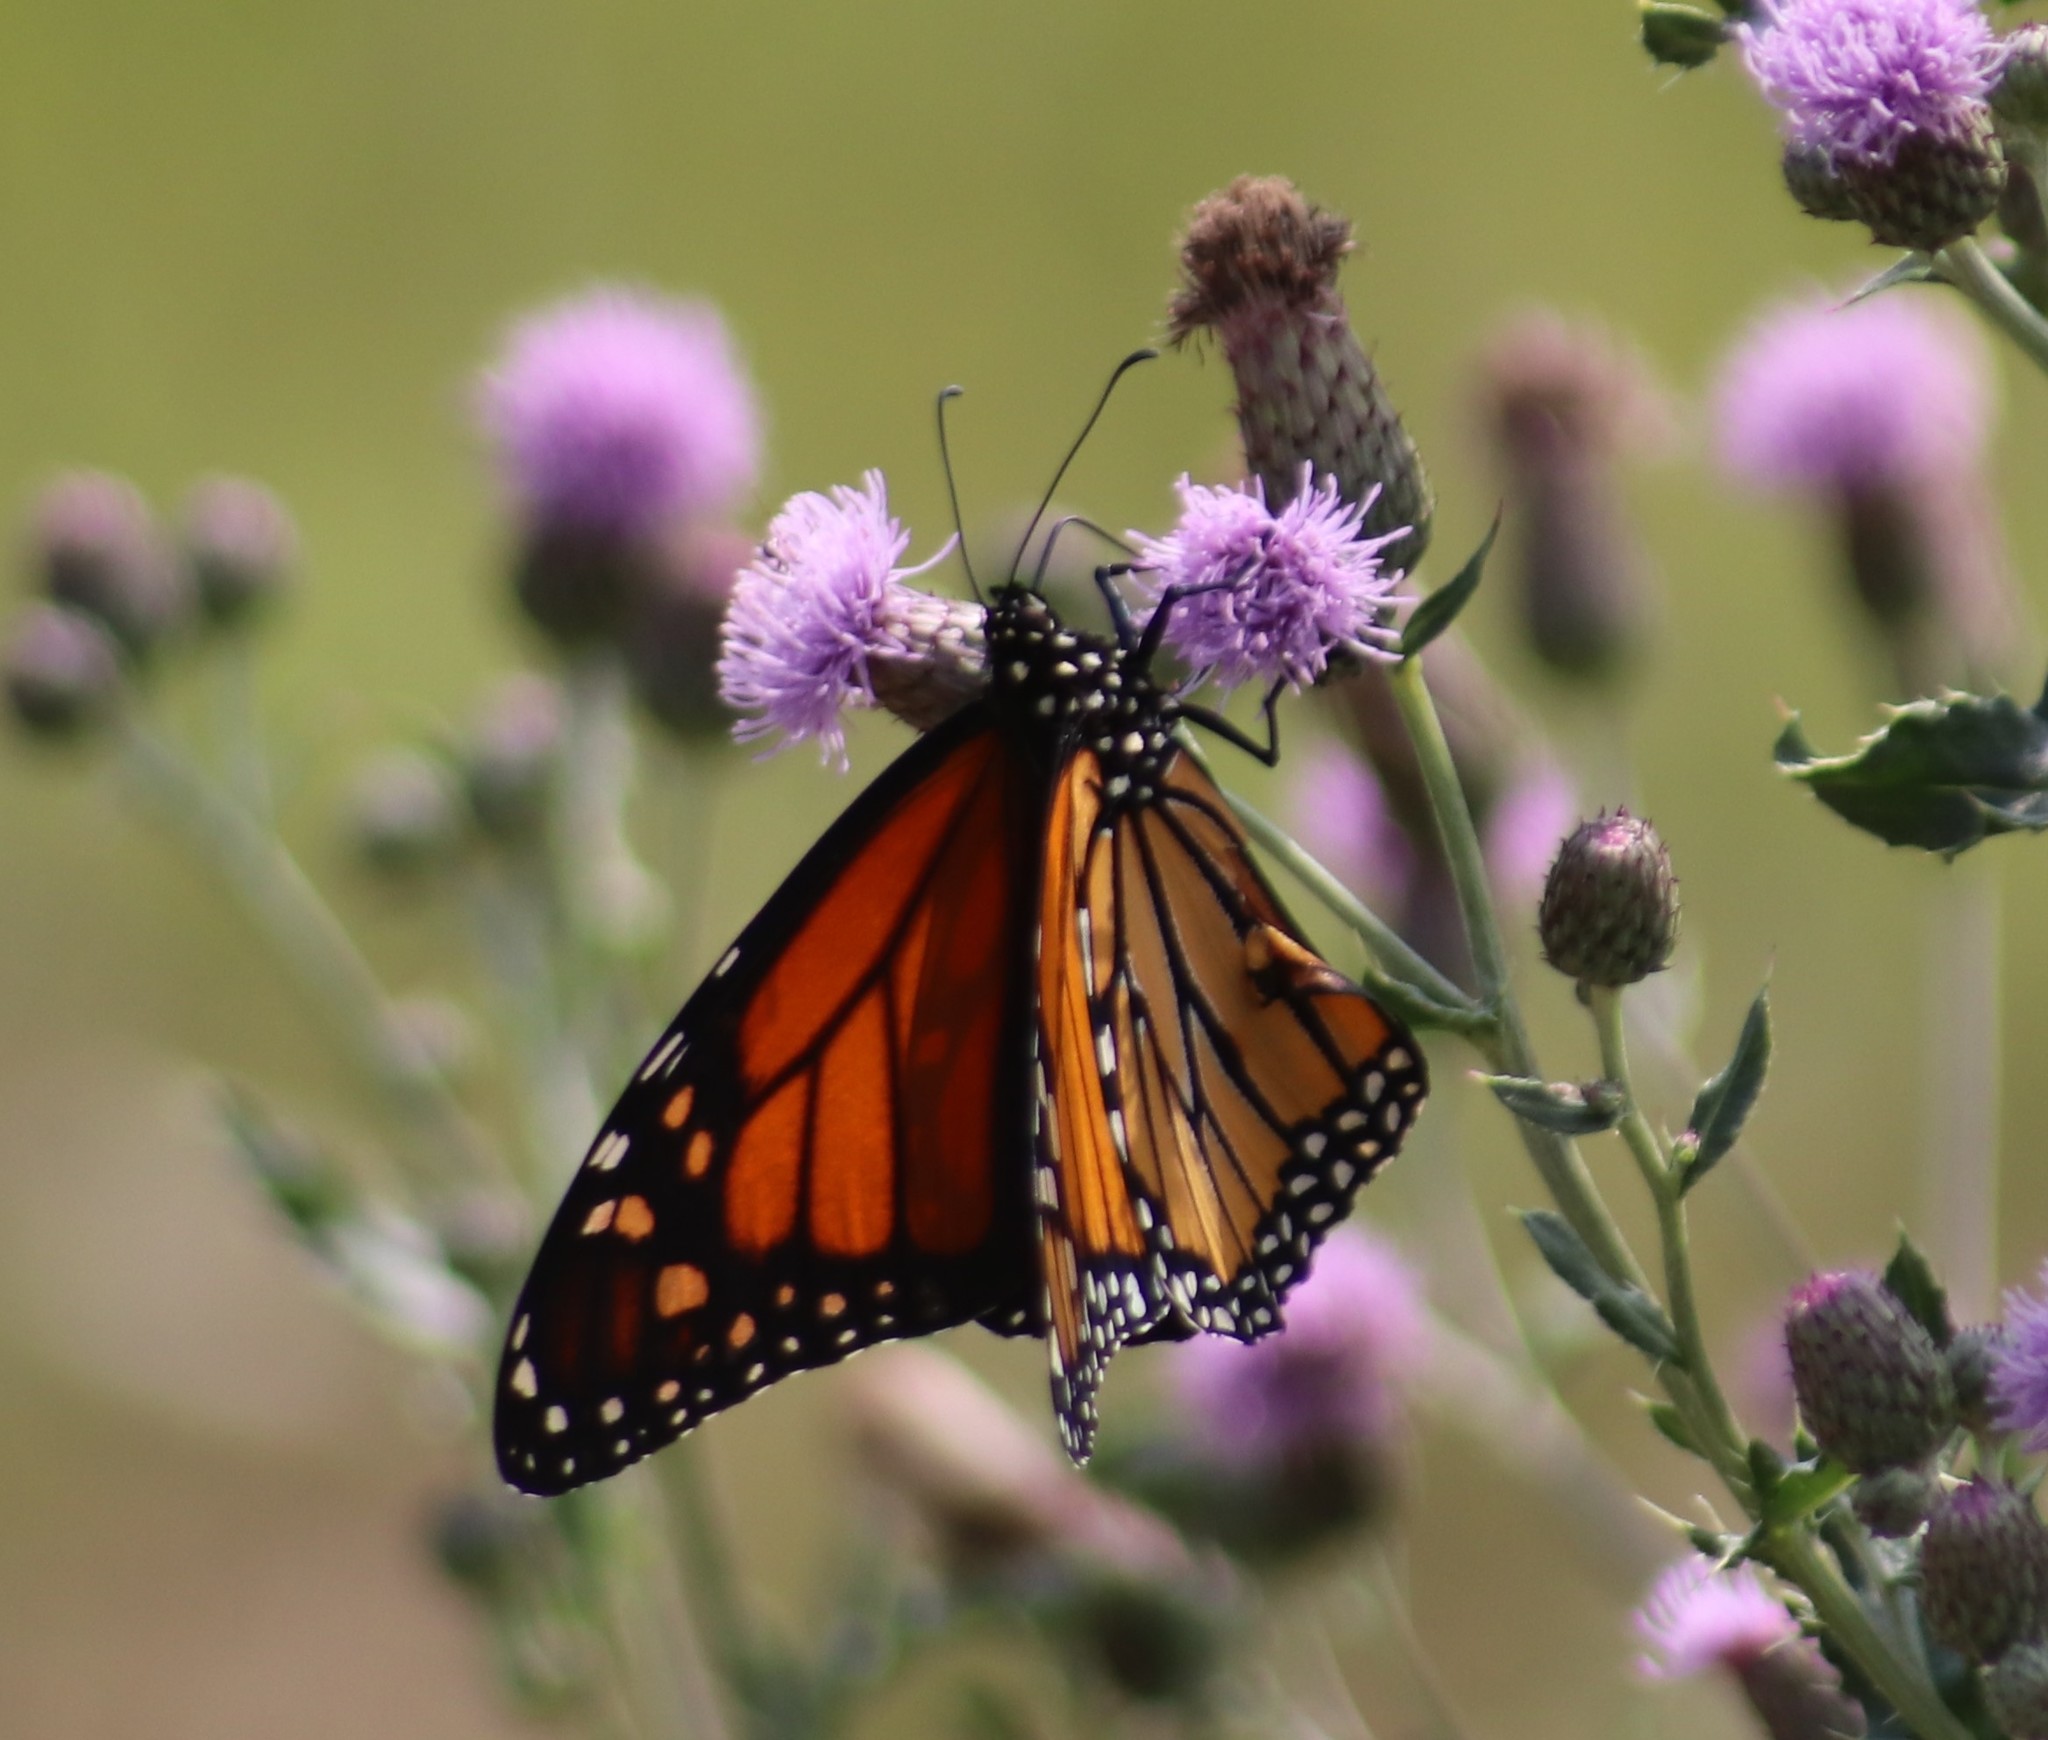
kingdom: Animalia
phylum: Arthropoda
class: Insecta
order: Lepidoptera
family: Nymphalidae
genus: Danaus
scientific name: Danaus plexippus
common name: Monarch
